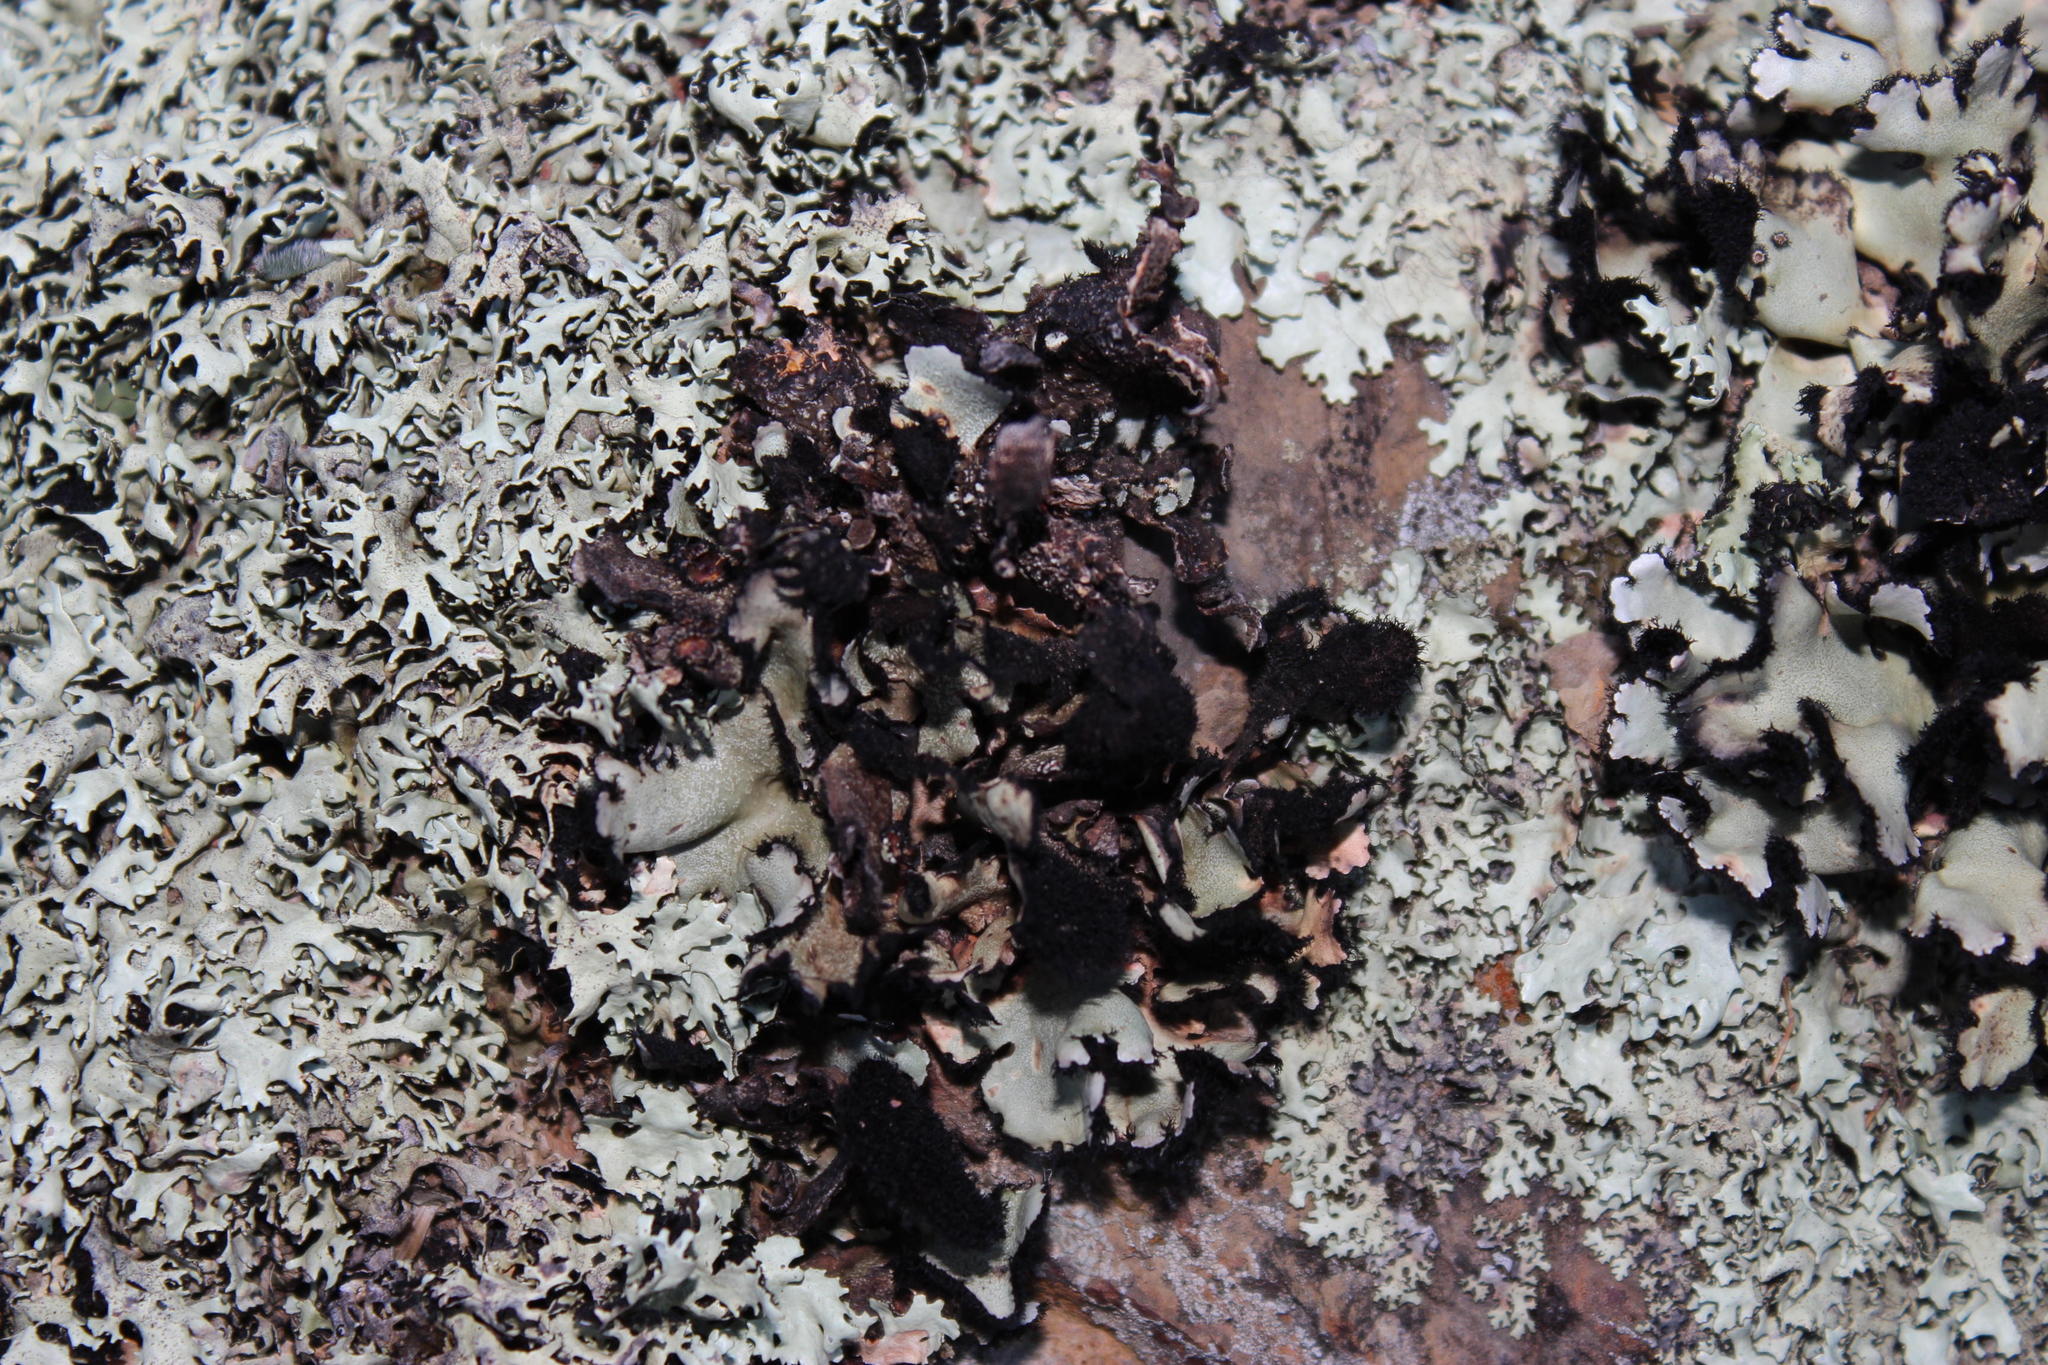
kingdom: Fungi
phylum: Ascomycota
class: Lecanoromycetes
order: Lecanorales
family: Parmeliaceae
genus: Xanthoparmelia
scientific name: Xanthoparmelia hottentotta
